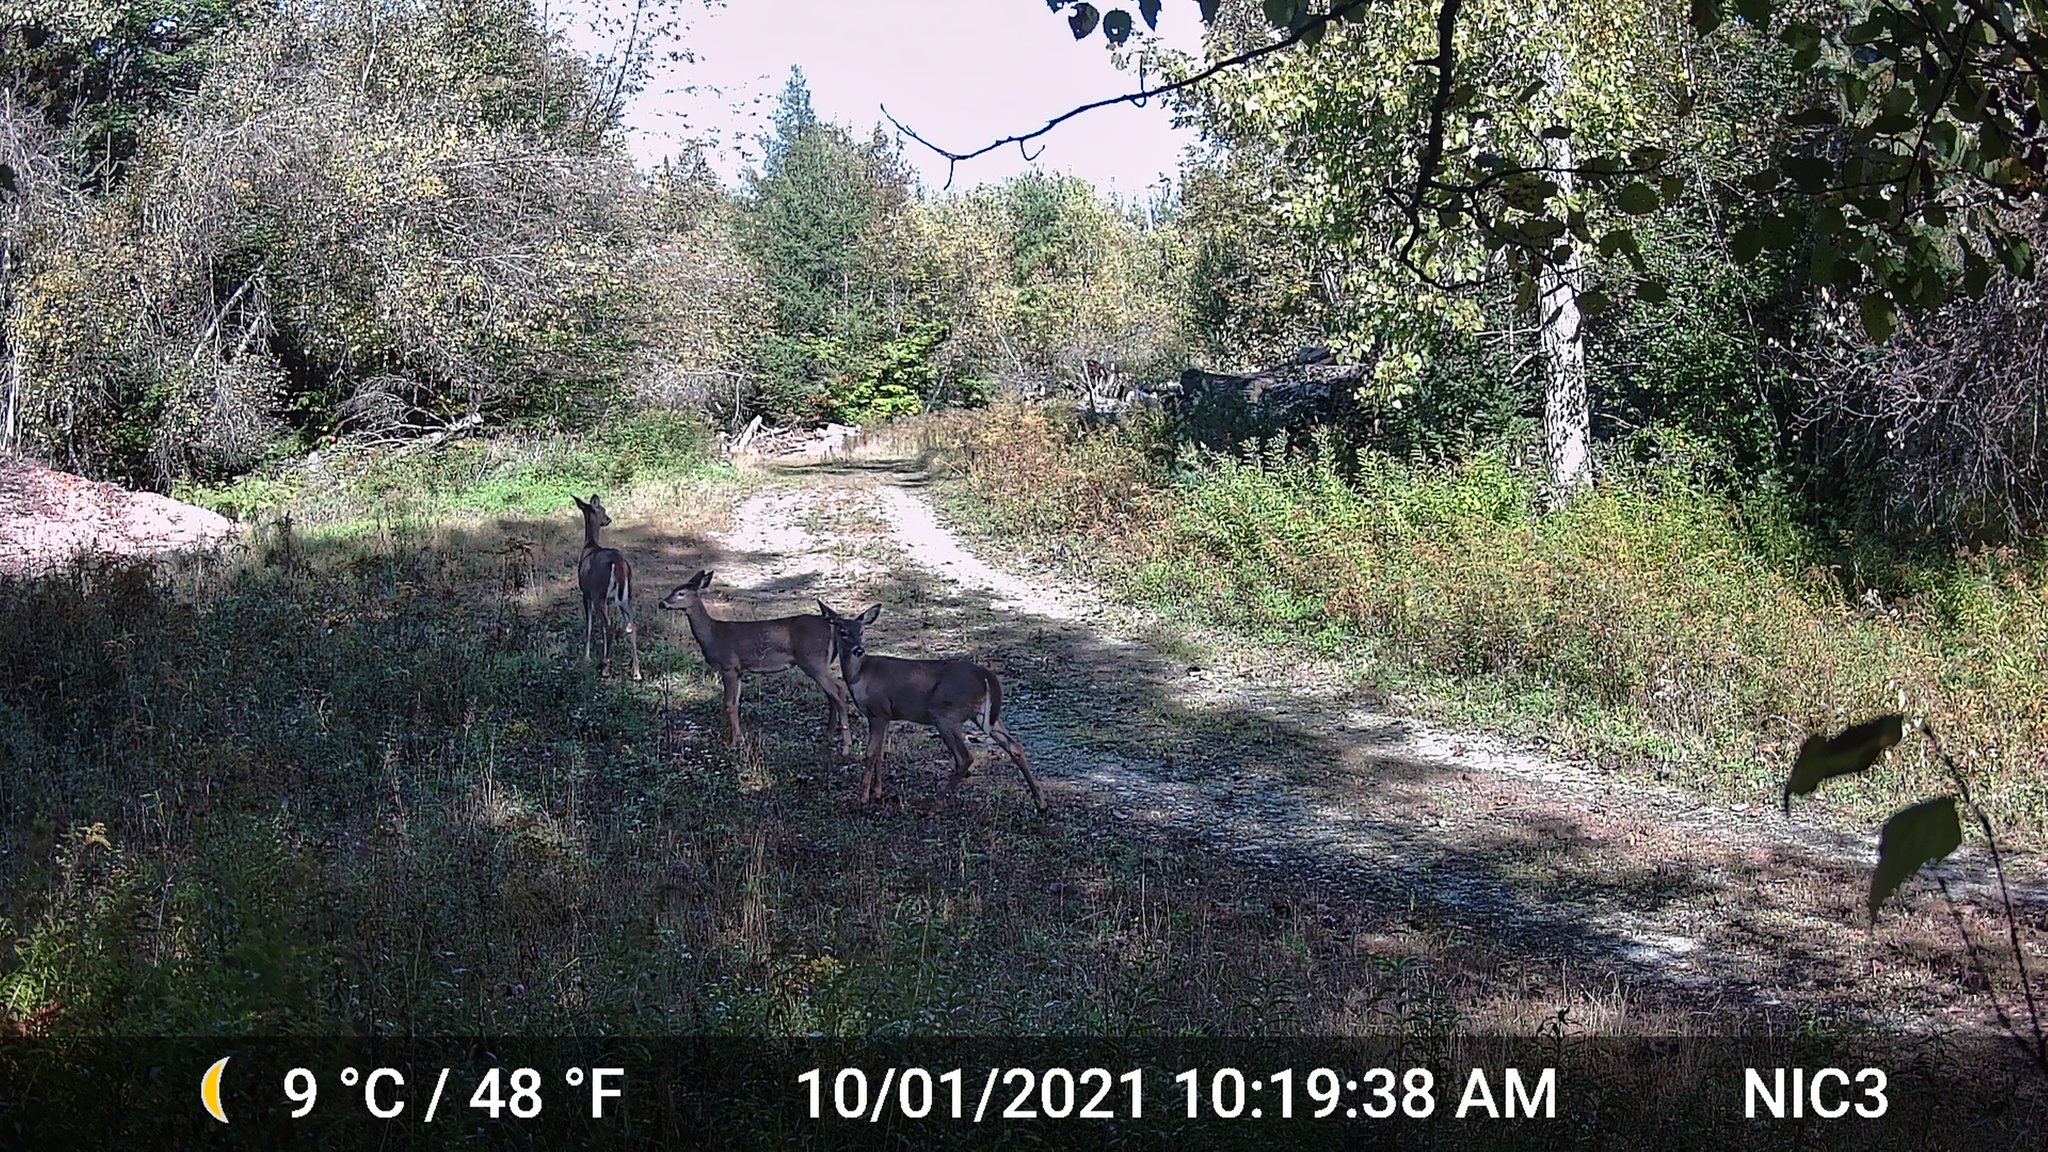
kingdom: Animalia
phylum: Chordata
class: Mammalia
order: Artiodactyla
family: Cervidae
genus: Odocoileus
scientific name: Odocoileus virginianus
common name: White-tailed deer
